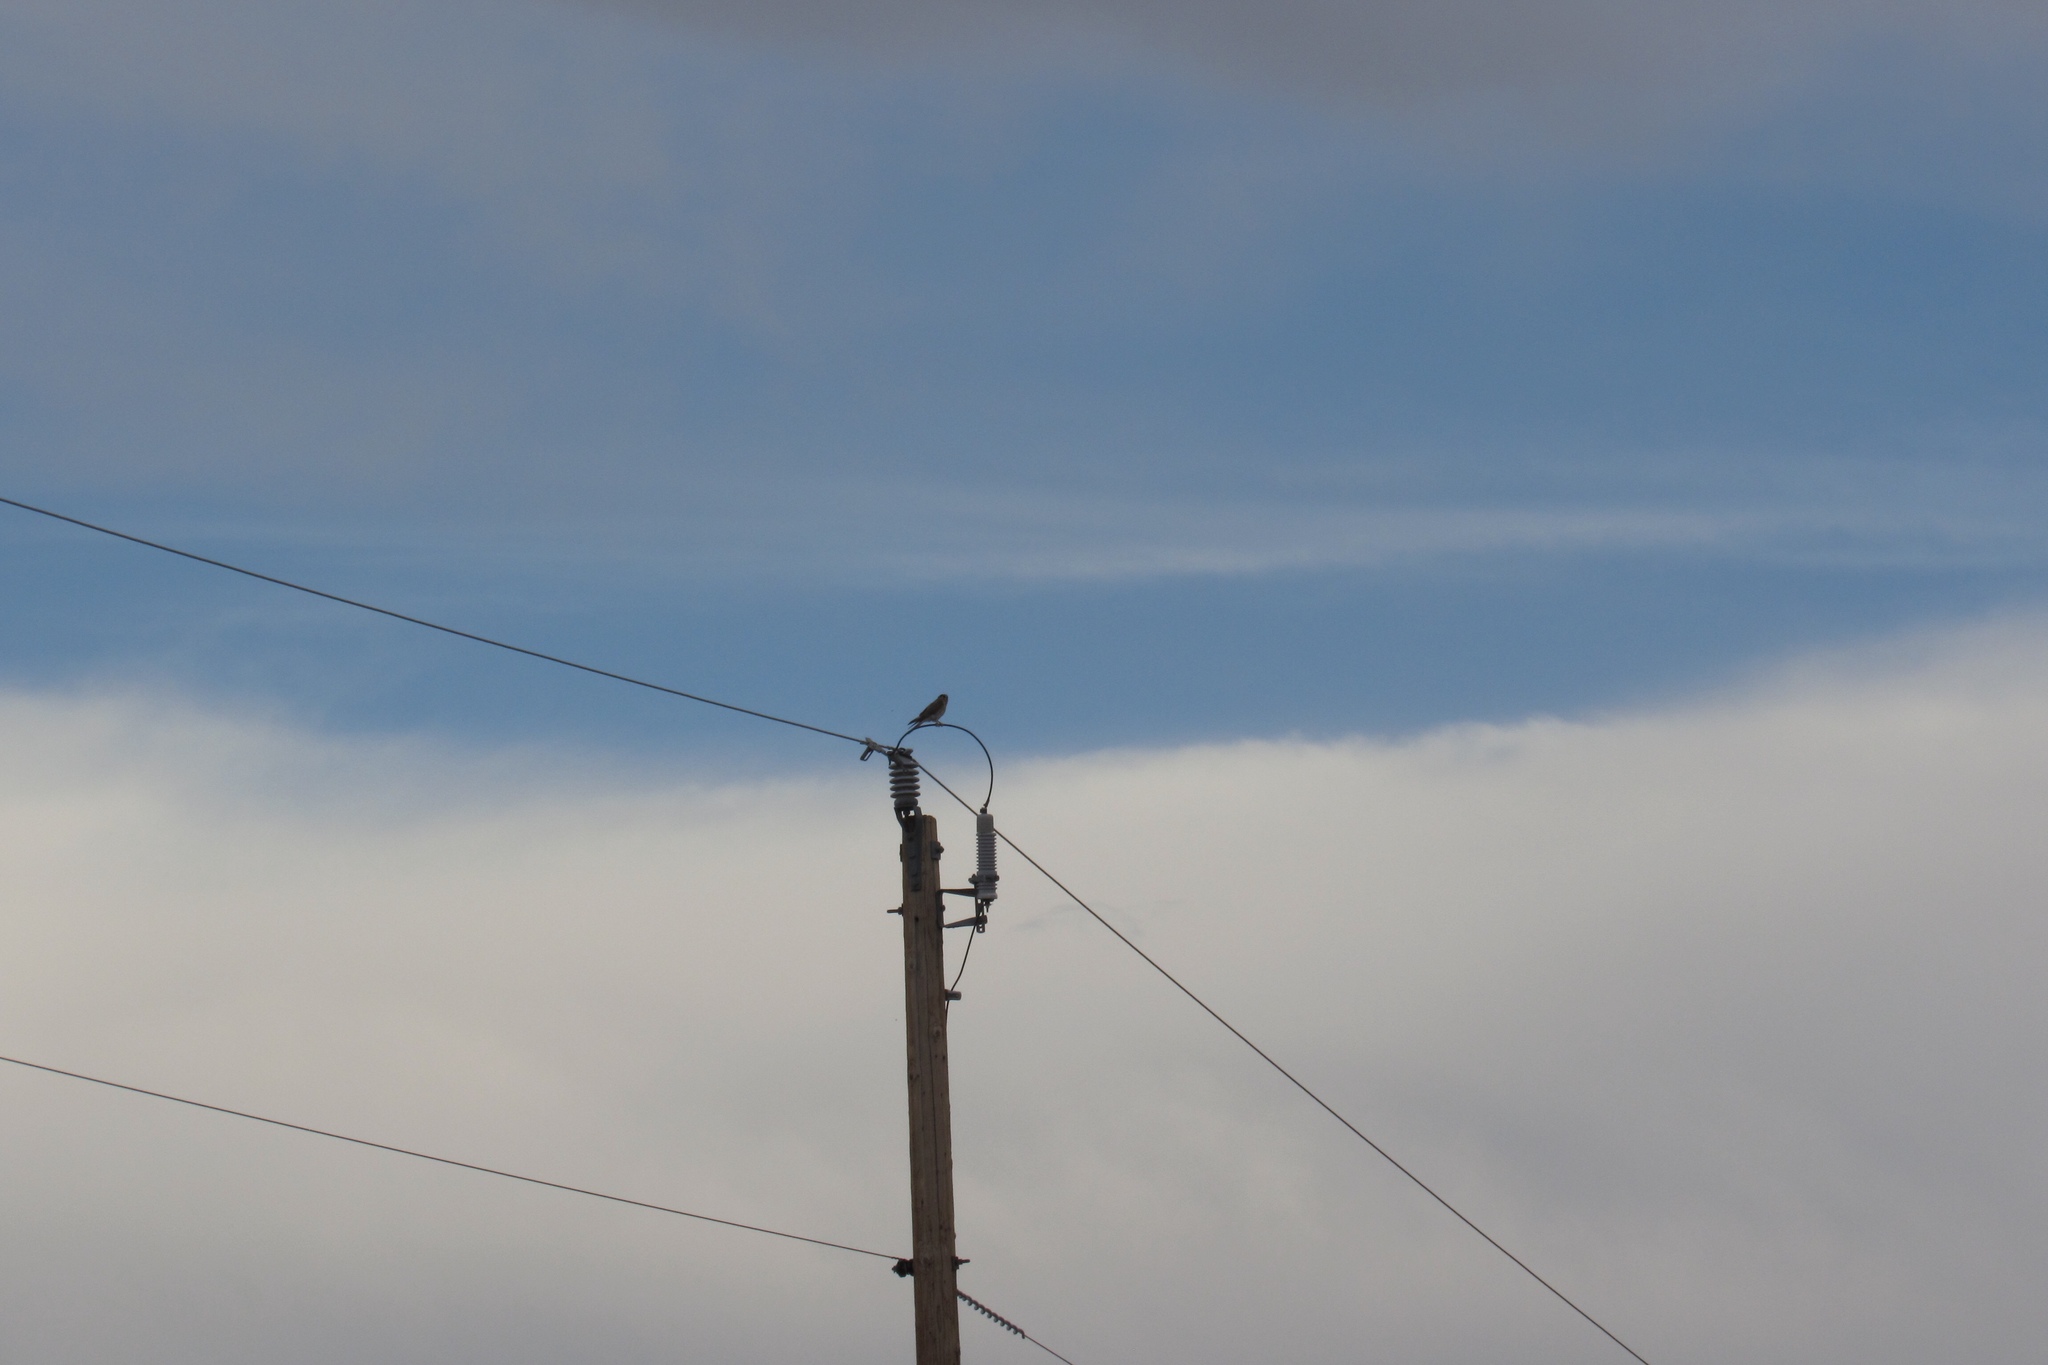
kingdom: Animalia
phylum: Chordata
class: Aves
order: Falconiformes
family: Falconidae
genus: Falco
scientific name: Falco sparverius
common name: American kestrel
